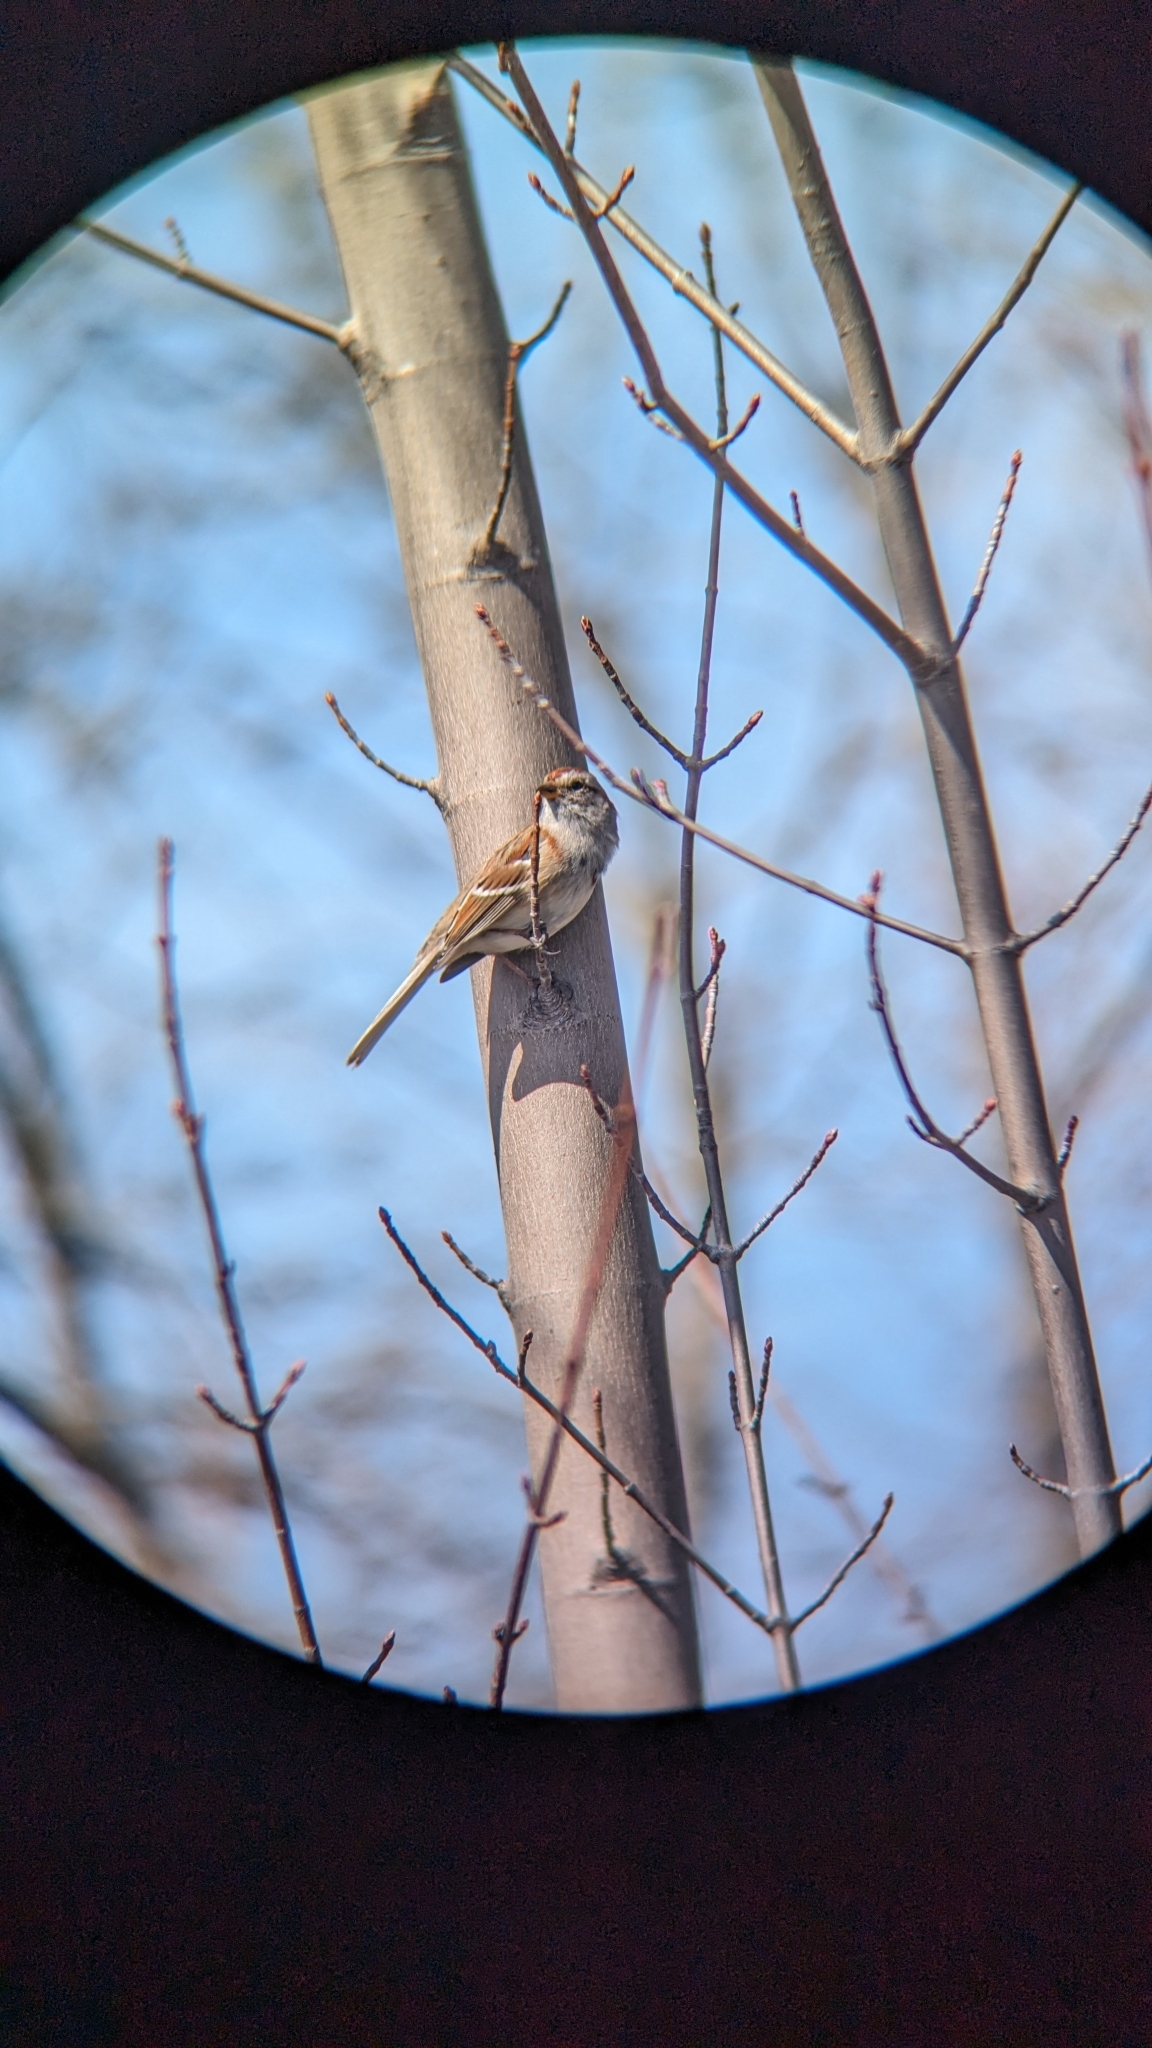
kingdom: Animalia
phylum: Chordata
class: Aves
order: Passeriformes
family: Passerellidae
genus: Spizelloides
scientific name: Spizelloides arborea
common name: American tree sparrow
